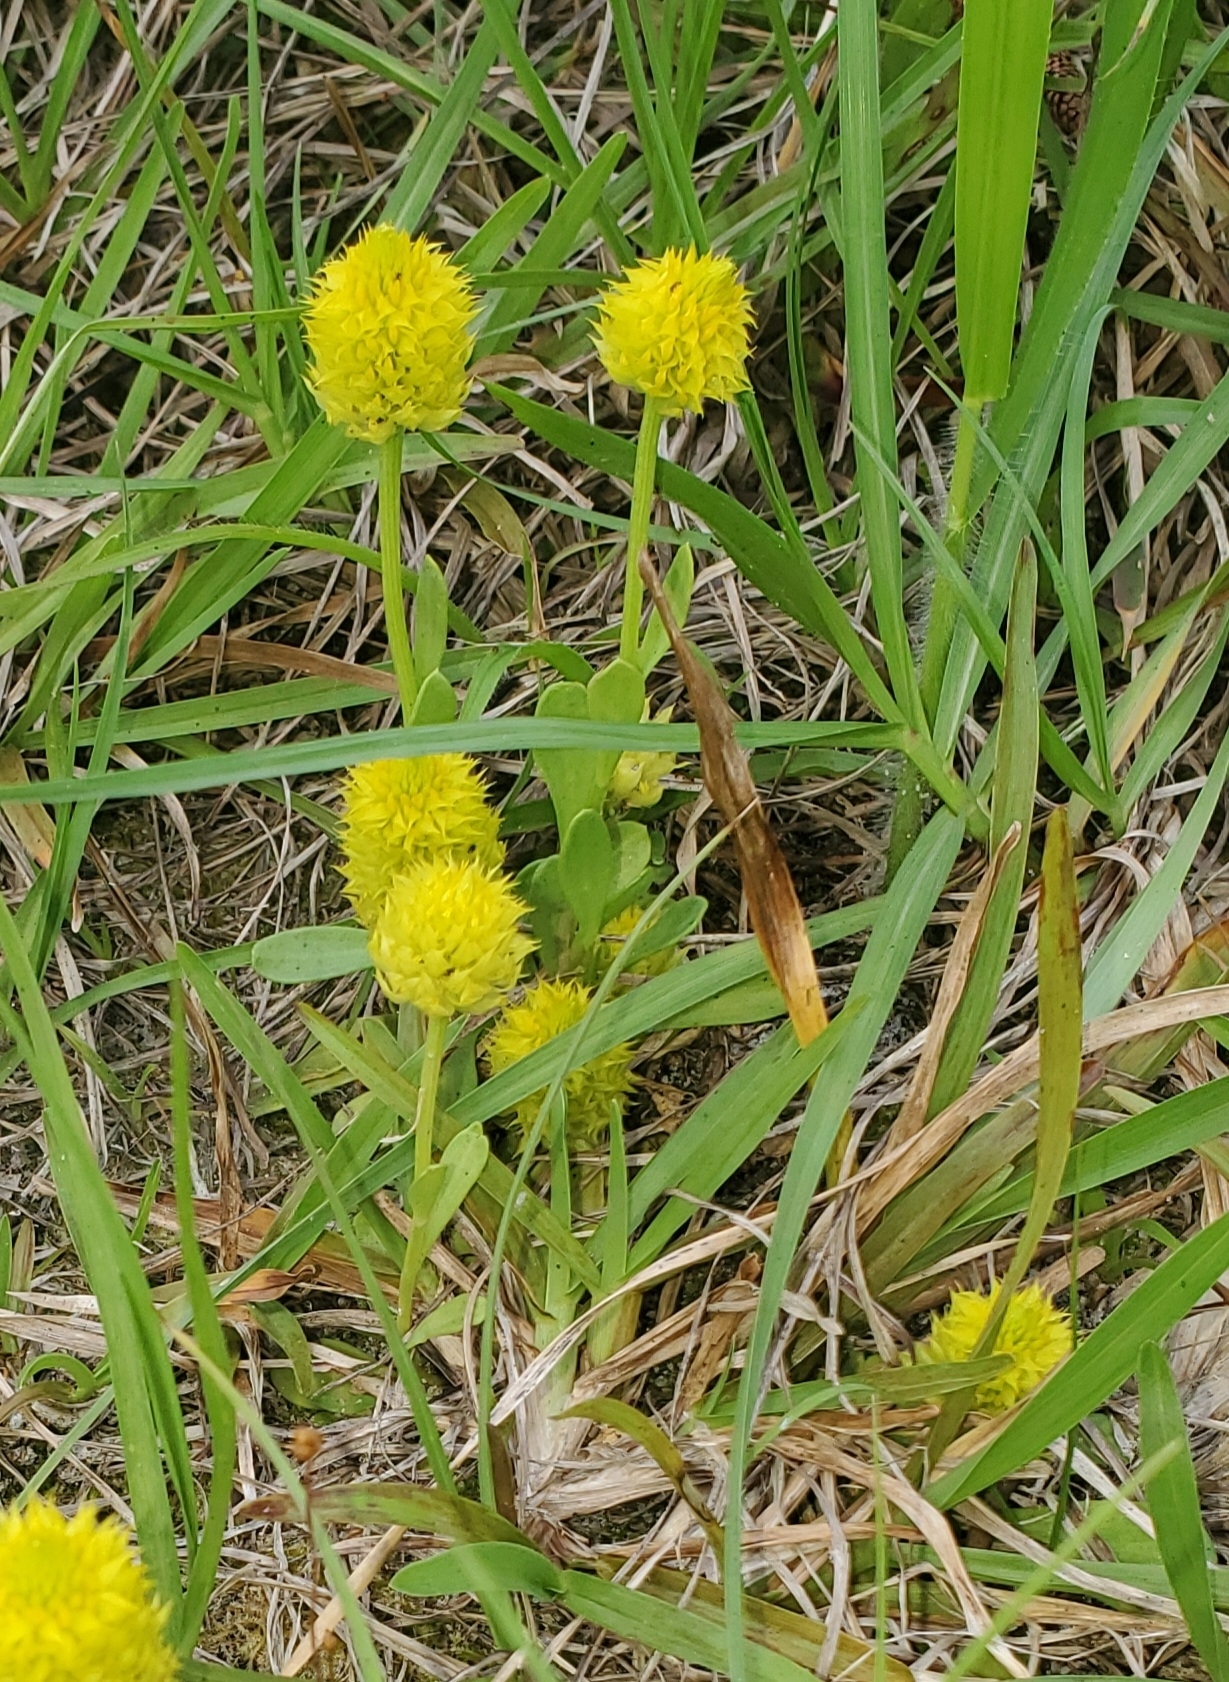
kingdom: Plantae
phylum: Tracheophyta
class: Magnoliopsida
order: Fabales
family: Polygalaceae
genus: Polygala
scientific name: Polygala nana
